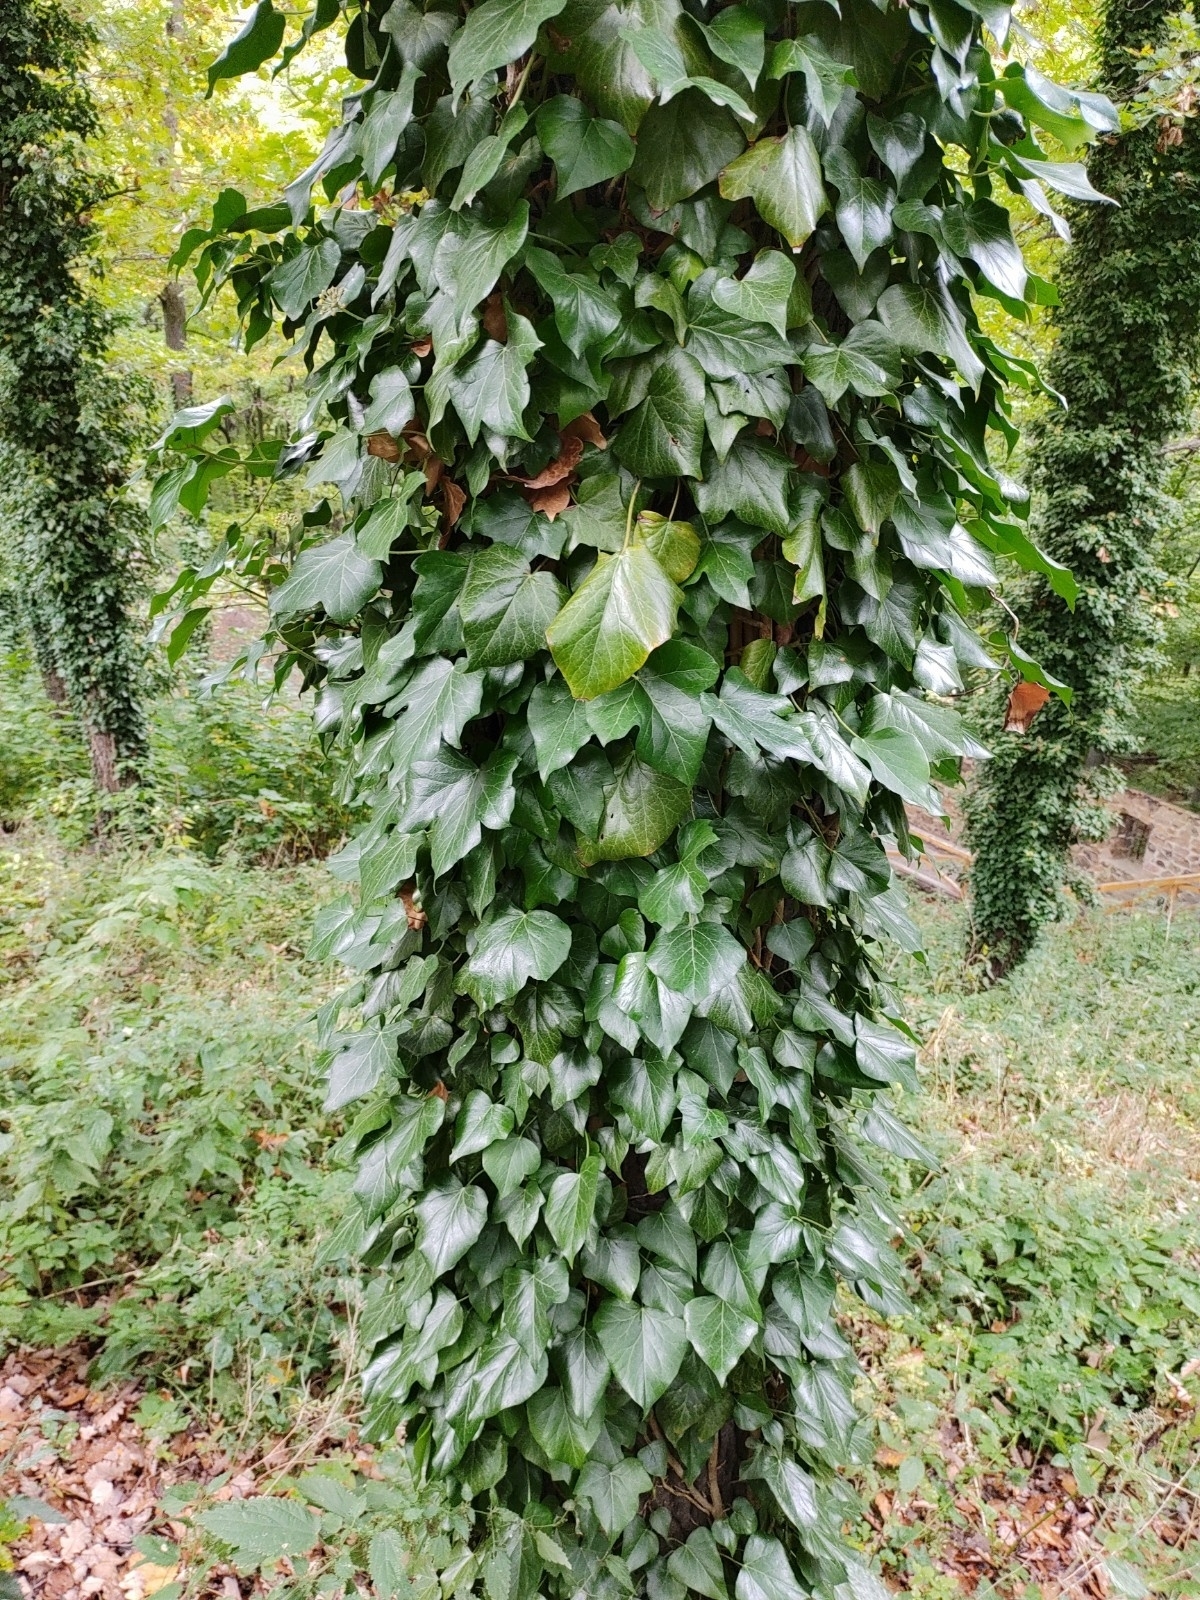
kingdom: Plantae
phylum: Tracheophyta
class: Magnoliopsida
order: Apiales
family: Araliaceae
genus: Hedera
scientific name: Hedera helix
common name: Ivy
